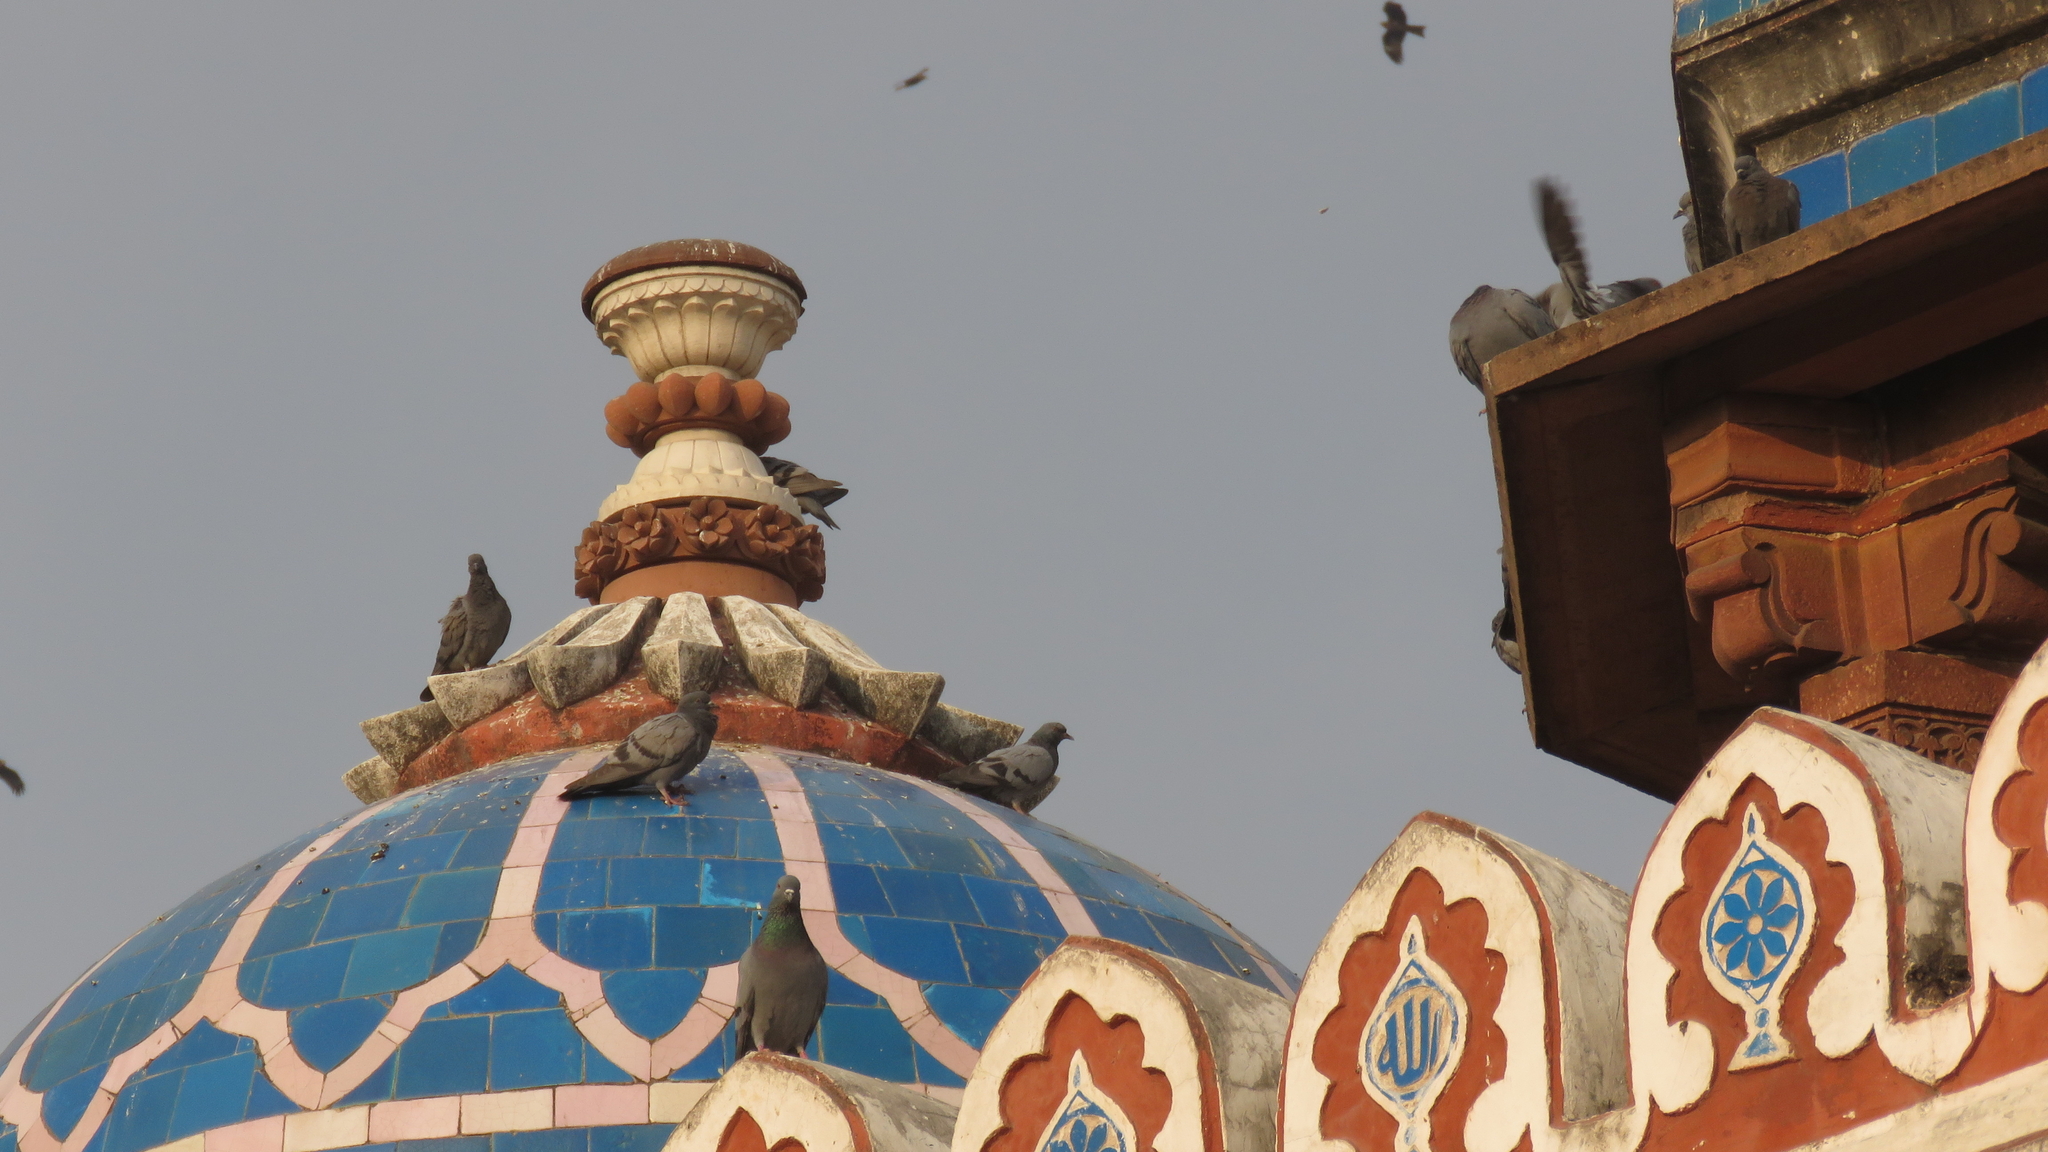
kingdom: Animalia
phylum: Chordata
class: Aves
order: Columbiformes
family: Columbidae
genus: Columba
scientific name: Columba livia
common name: Rock pigeon
